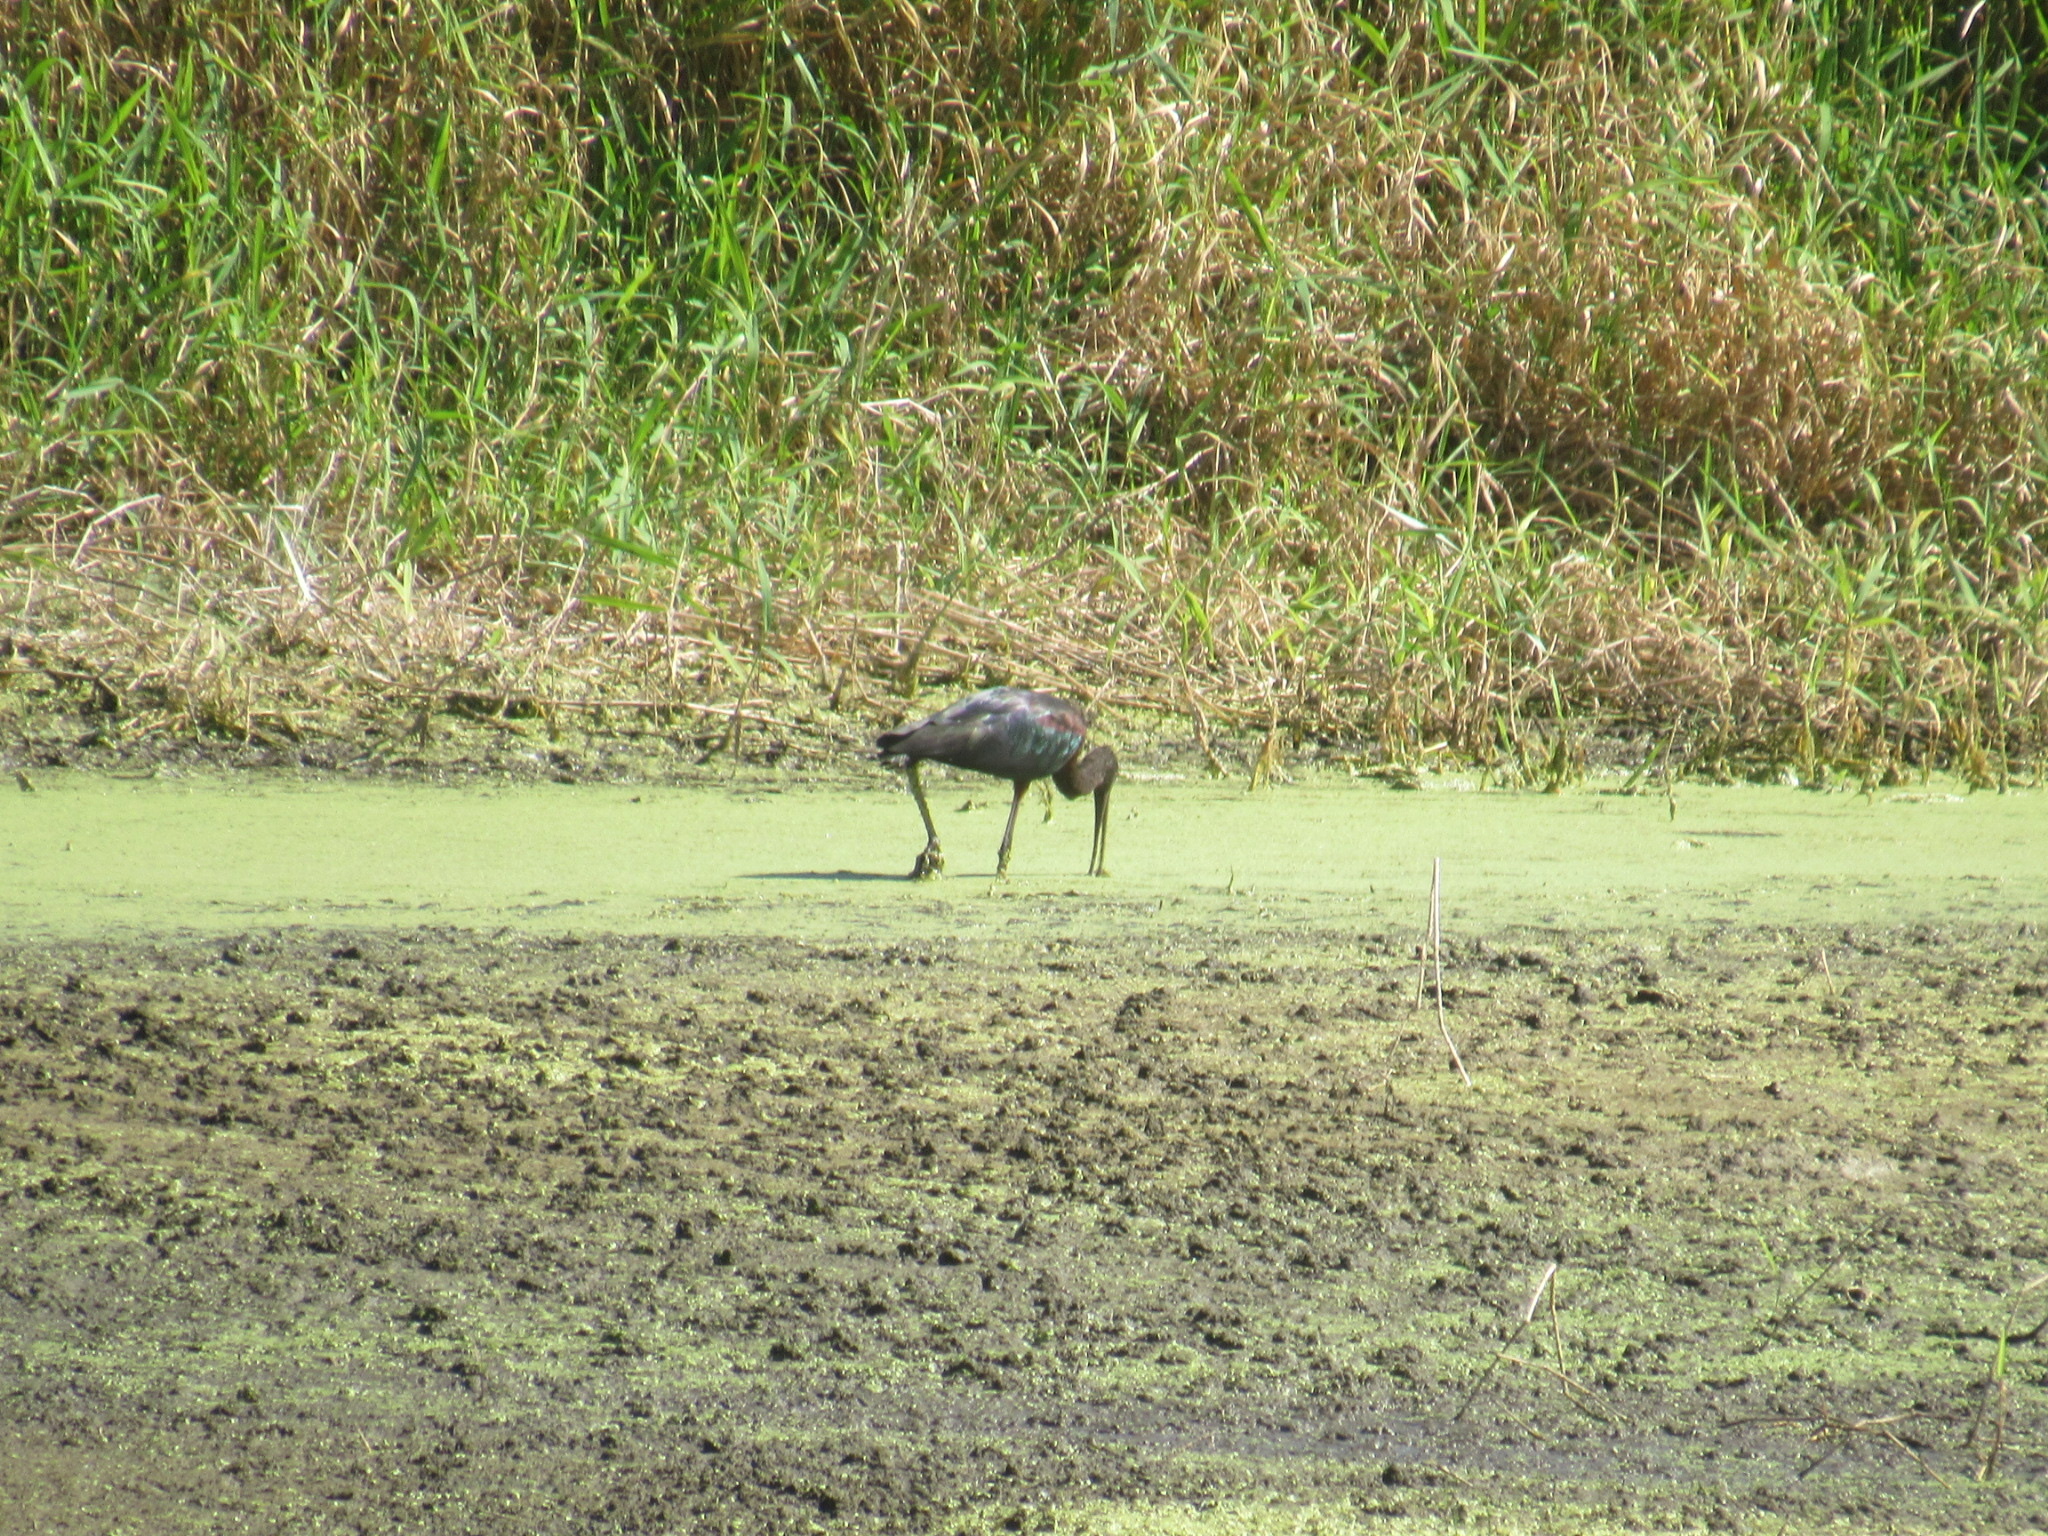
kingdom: Animalia
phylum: Chordata
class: Aves
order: Pelecaniformes
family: Threskiornithidae
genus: Plegadis
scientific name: Plegadis falcinellus
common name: Glossy ibis
